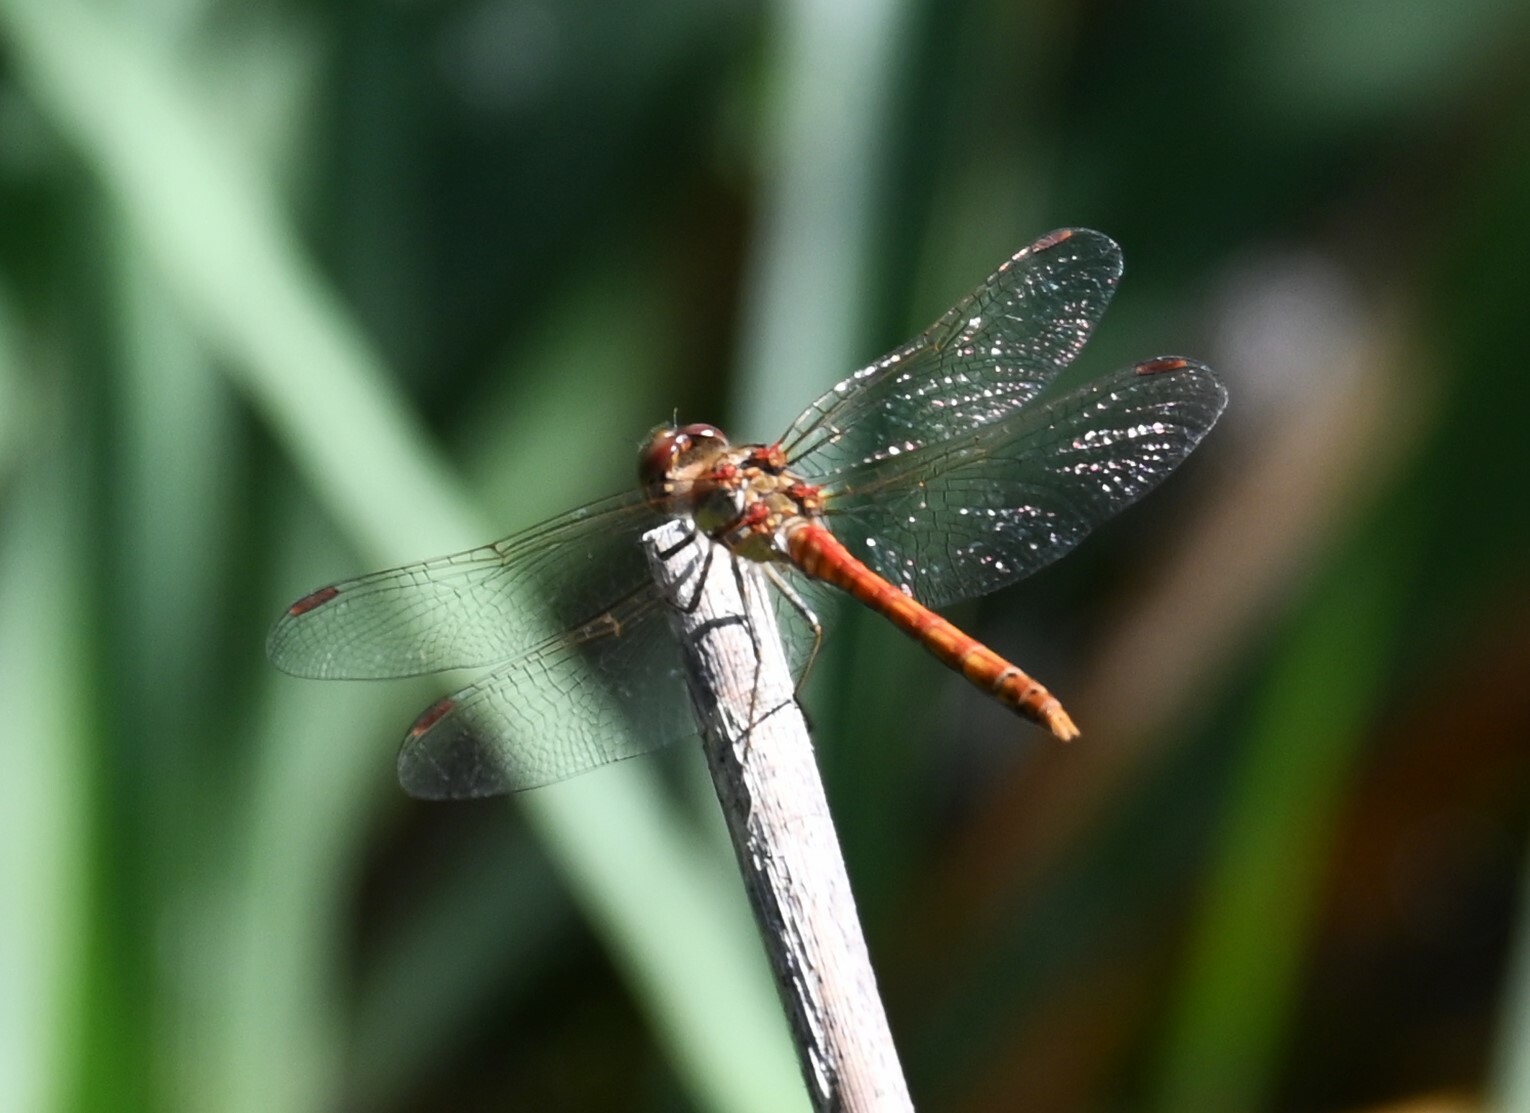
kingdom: Animalia
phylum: Arthropoda
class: Insecta
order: Odonata
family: Libellulidae
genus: Sympetrum
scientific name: Sympetrum striolatum
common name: Common darter
